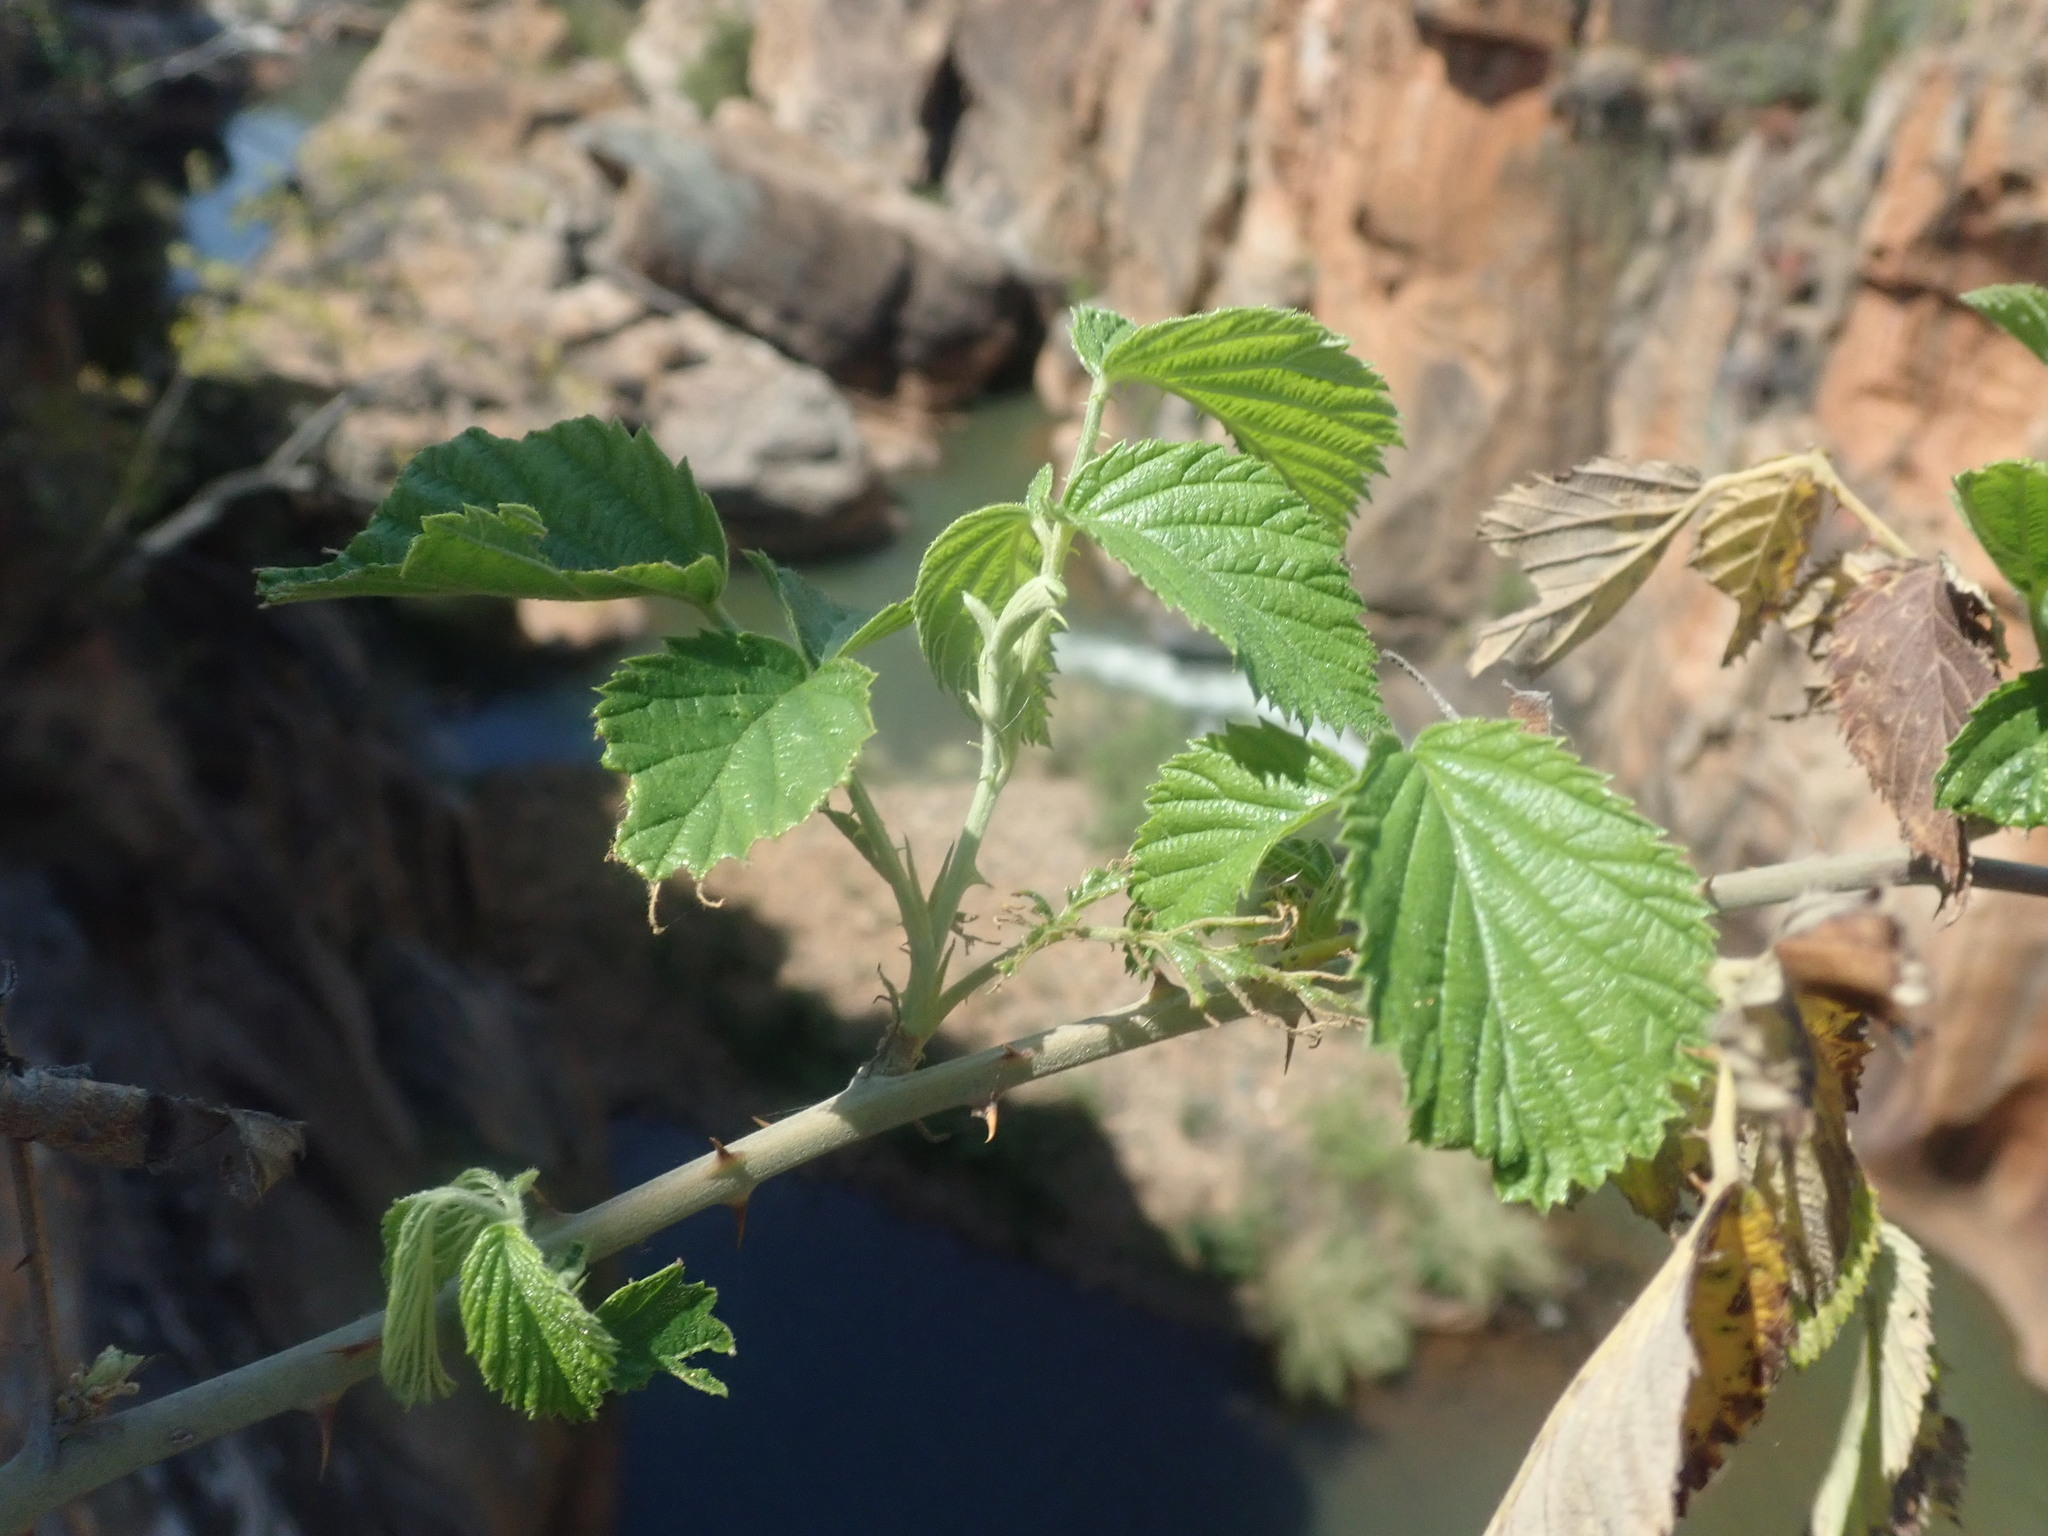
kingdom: Plantae
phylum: Tracheophyta
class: Magnoliopsida
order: Rosales
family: Rosaceae
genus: Rubus
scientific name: Rubus rigidus
